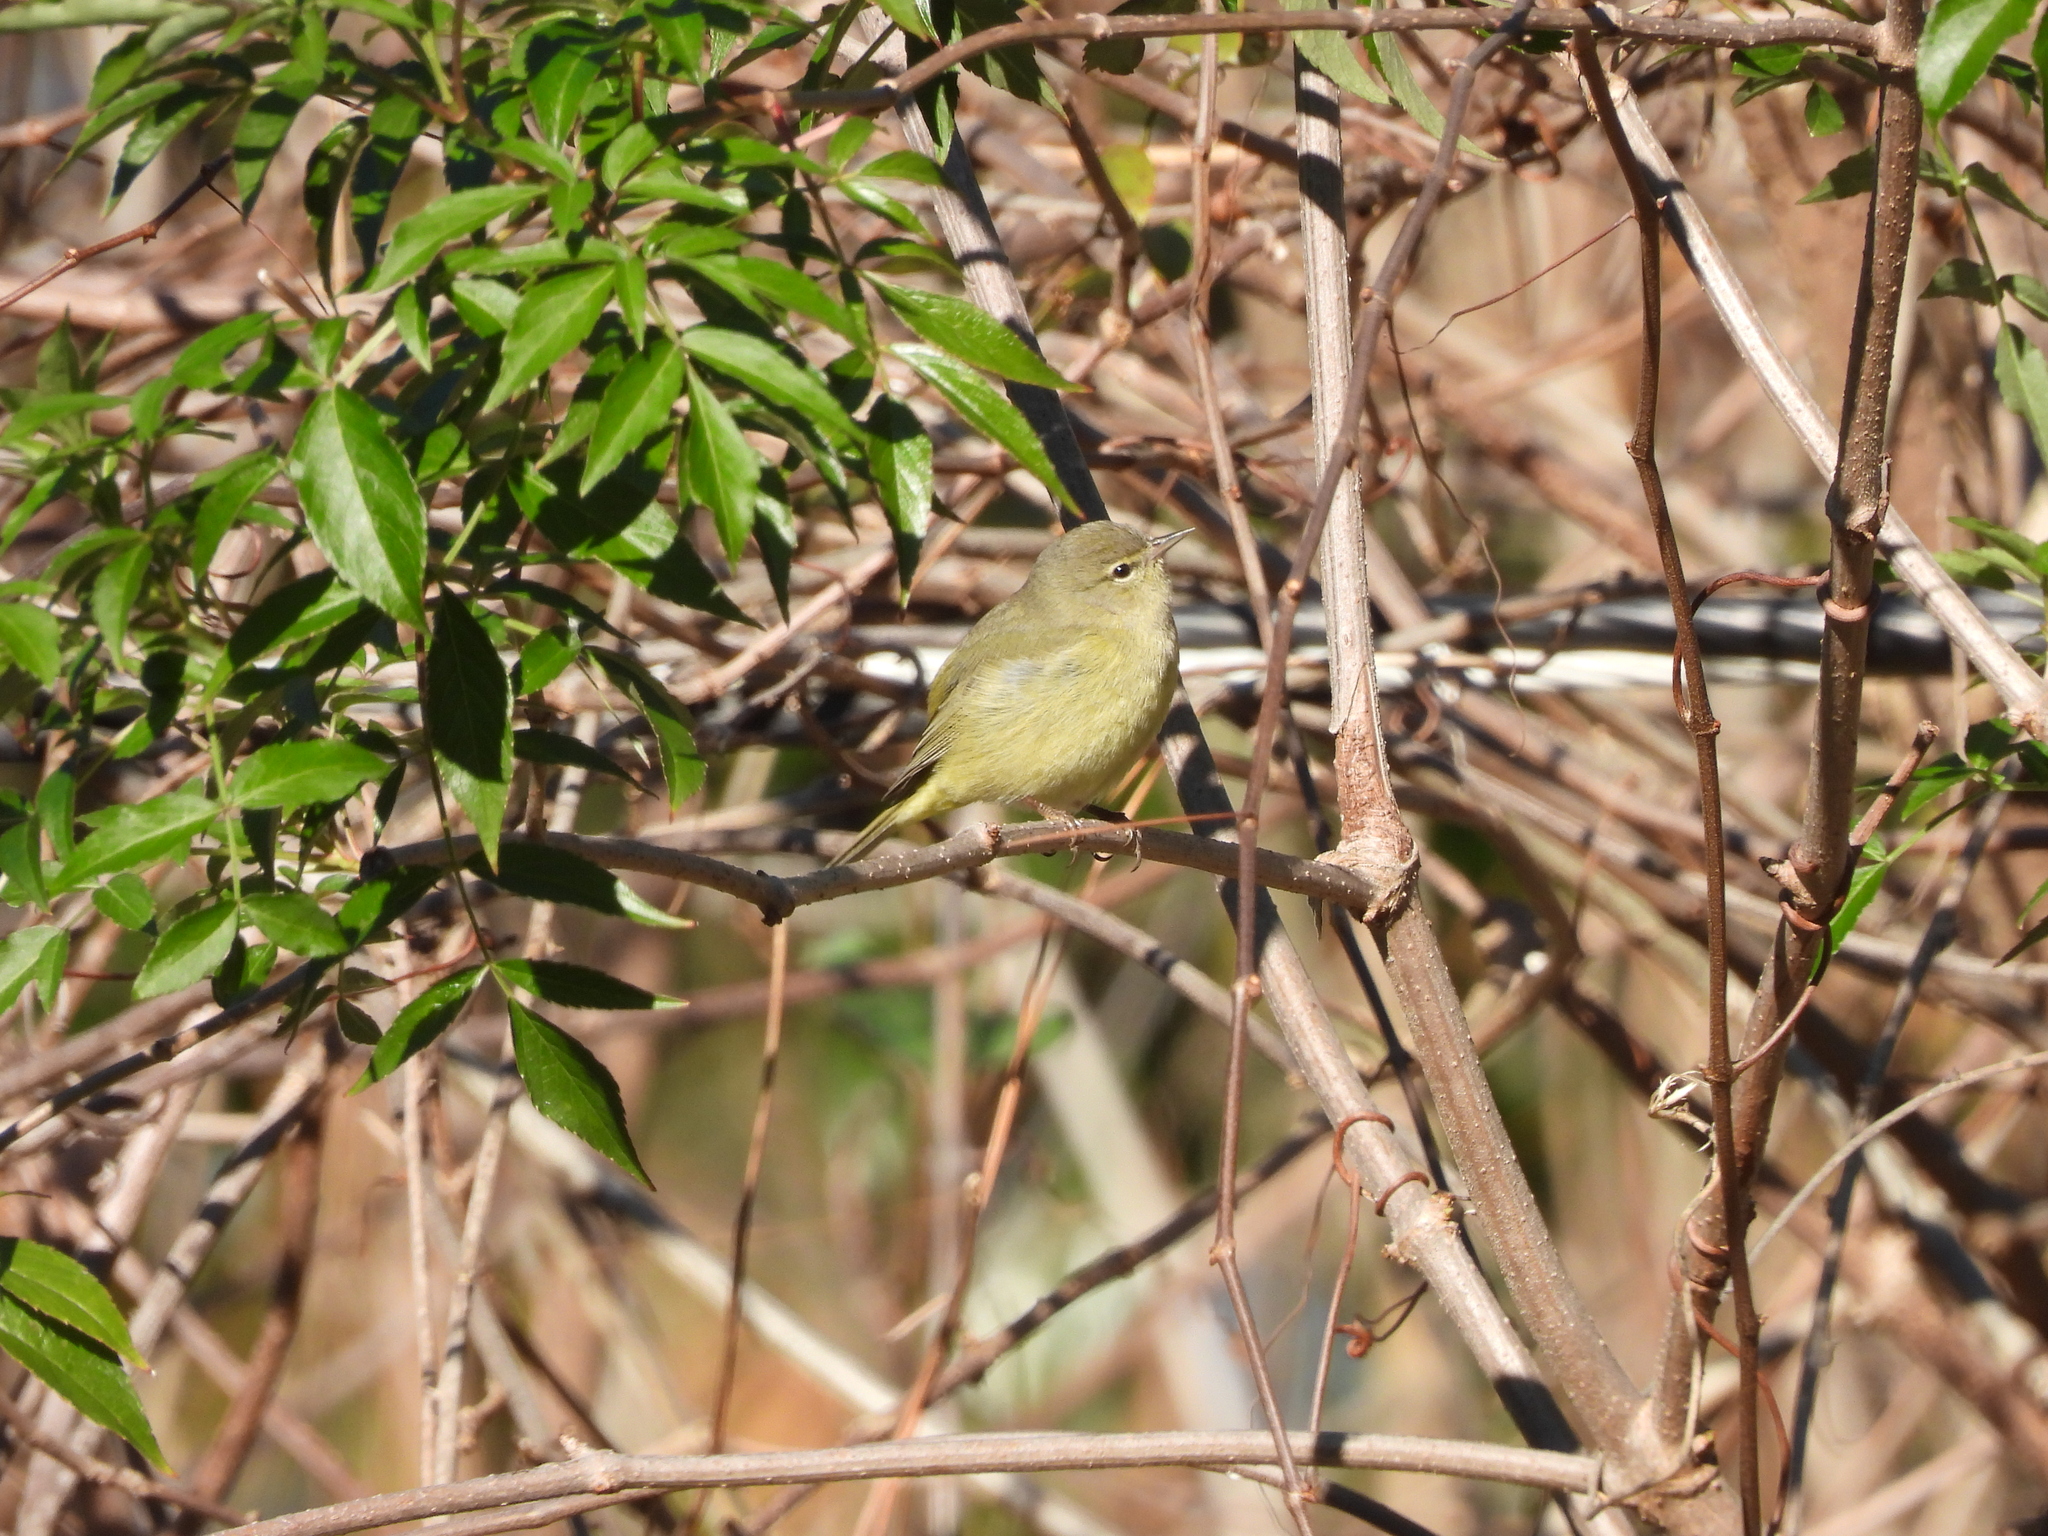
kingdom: Animalia
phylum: Chordata
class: Aves
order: Passeriformes
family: Parulidae
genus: Leiothlypis
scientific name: Leiothlypis celata
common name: Orange-crowned warbler
